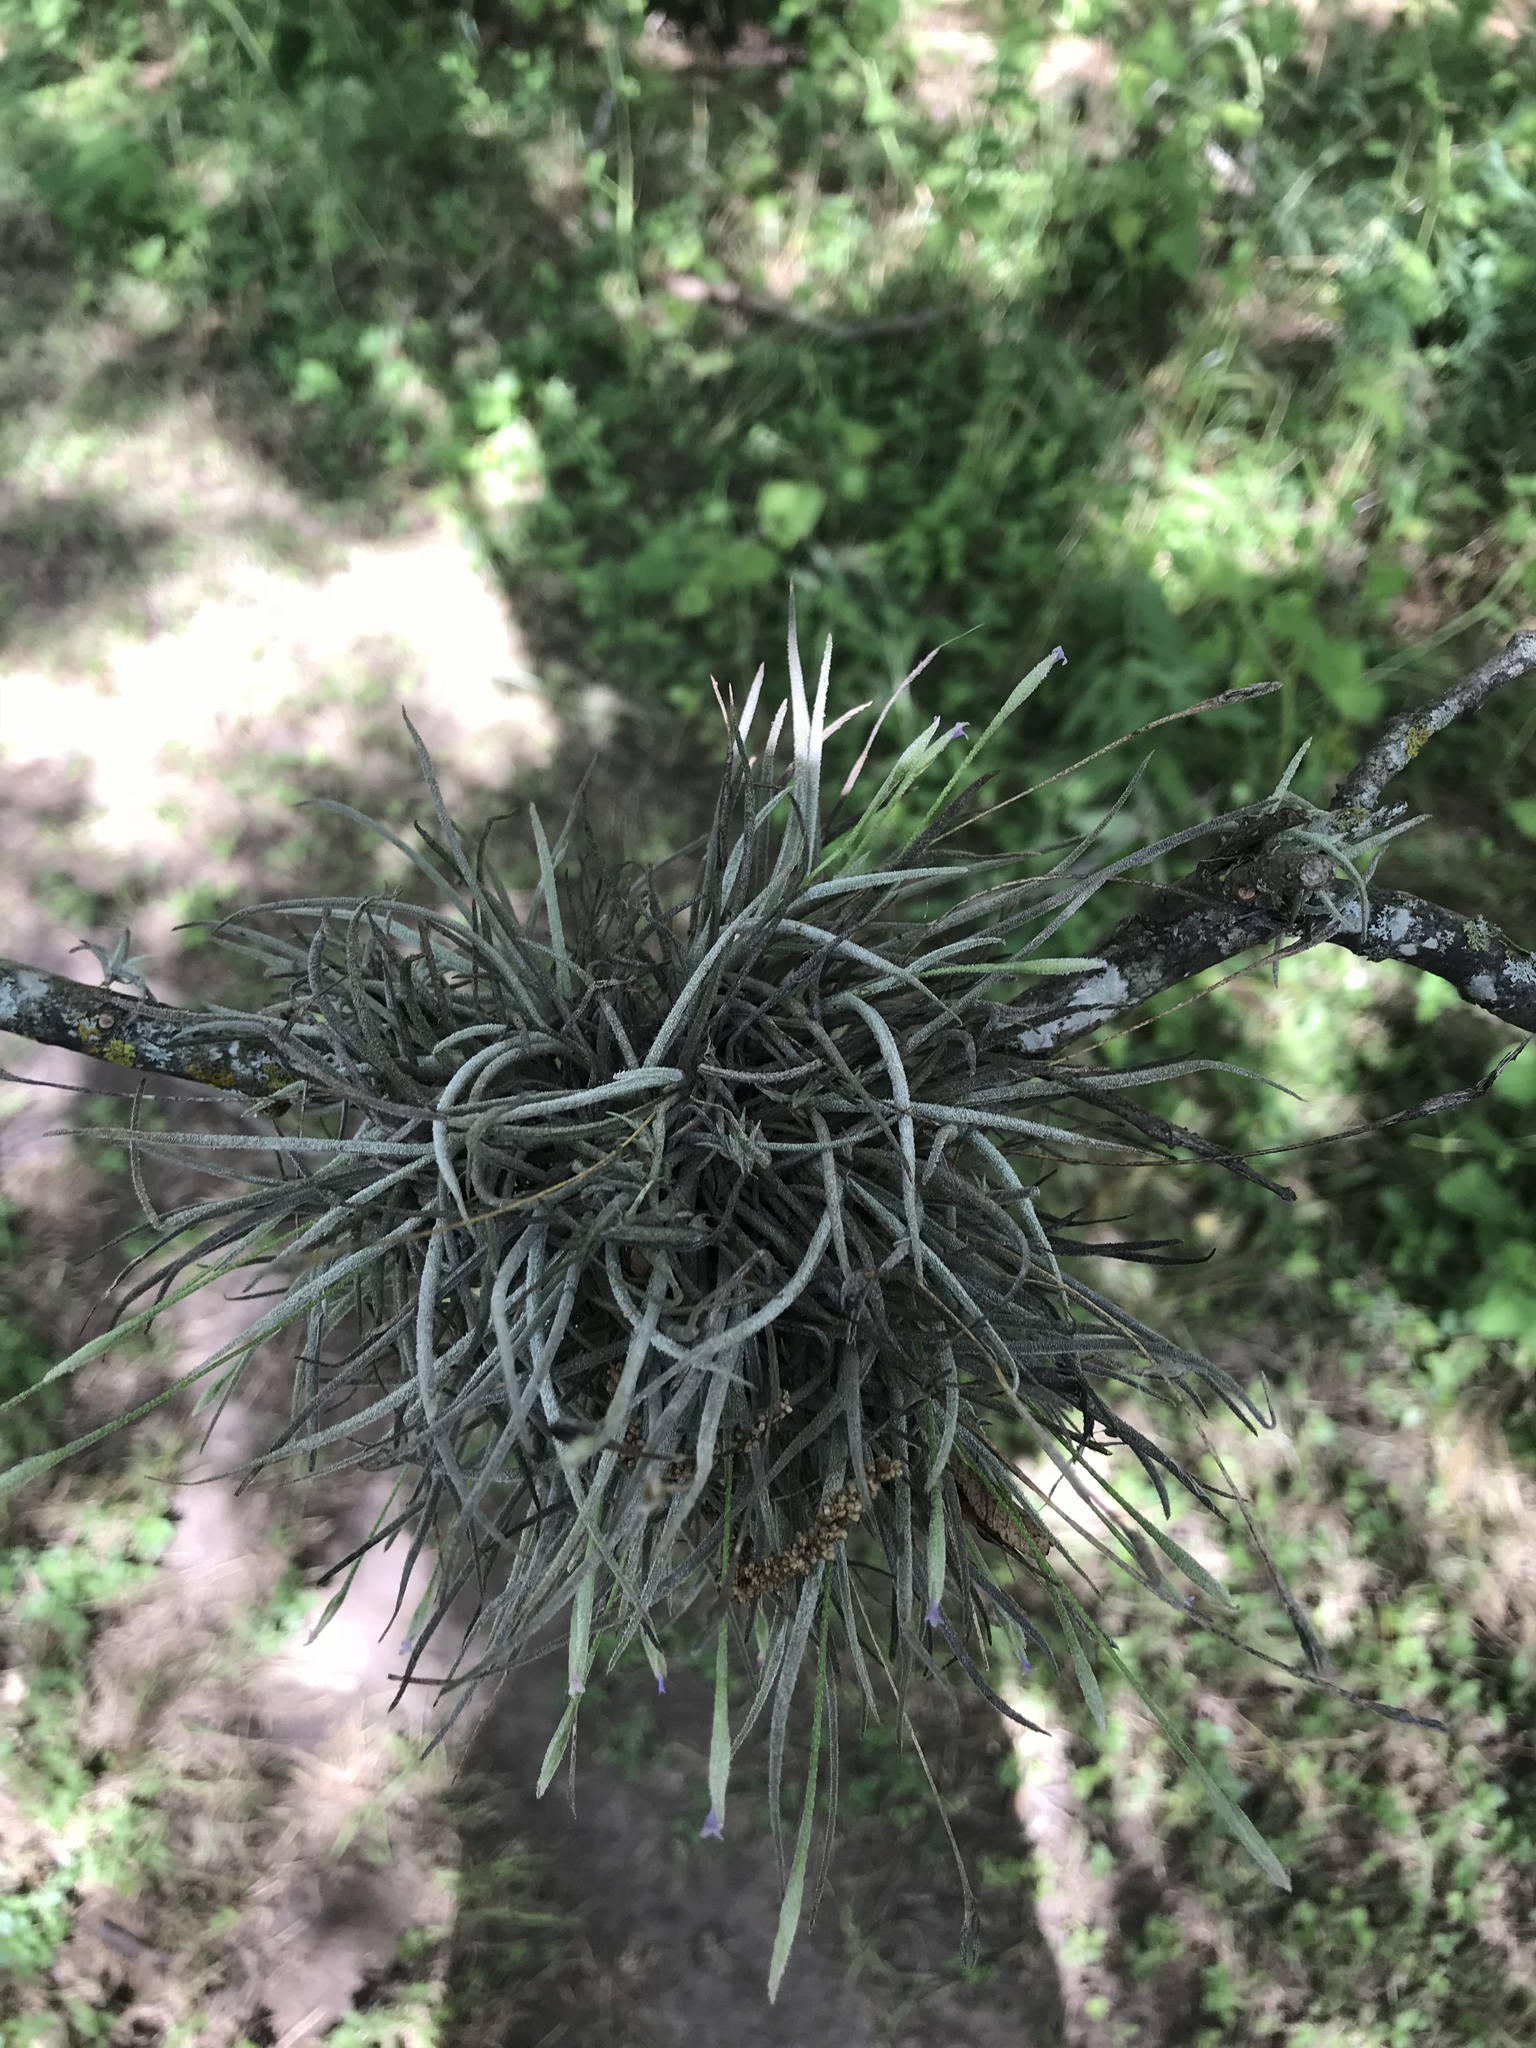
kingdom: Plantae
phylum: Tracheophyta
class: Liliopsida
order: Poales
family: Bromeliaceae
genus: Tillandsia
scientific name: Tillandsia recurvata
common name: Small ballmoss
